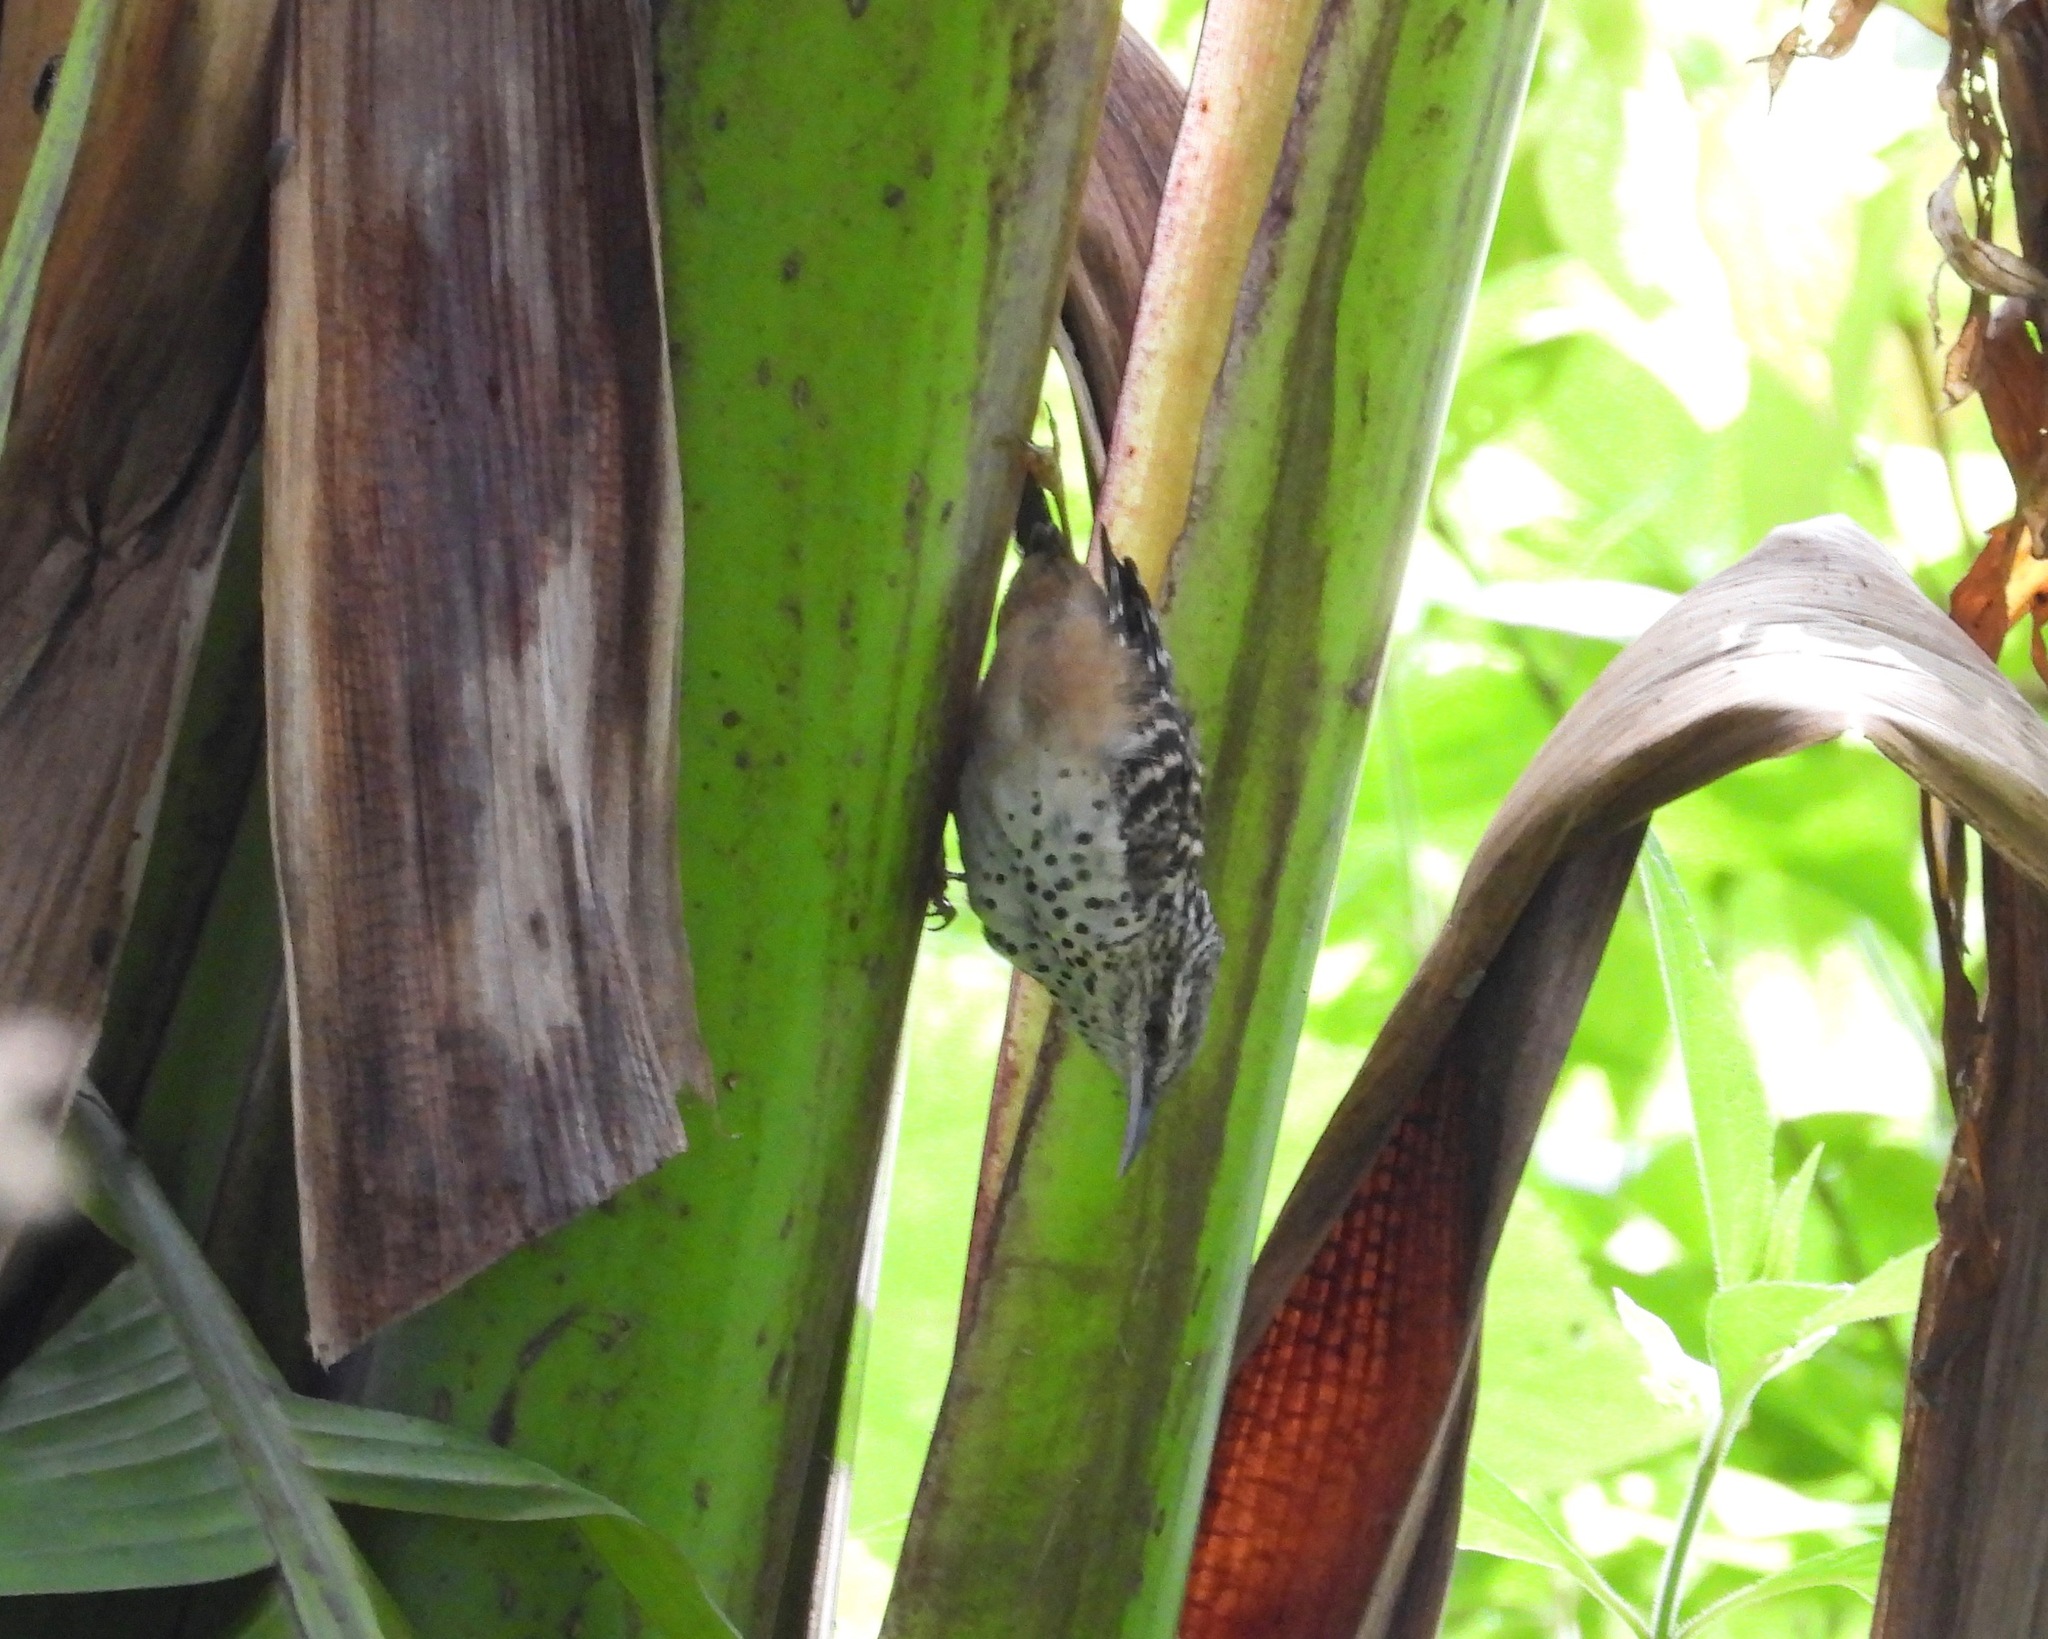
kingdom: Animalia
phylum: Chordata
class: Aves
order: Passeriformes
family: Troglodytidae
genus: Campylorhynchus
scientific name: Campylorhynchus zonatus
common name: Band-backed wren
